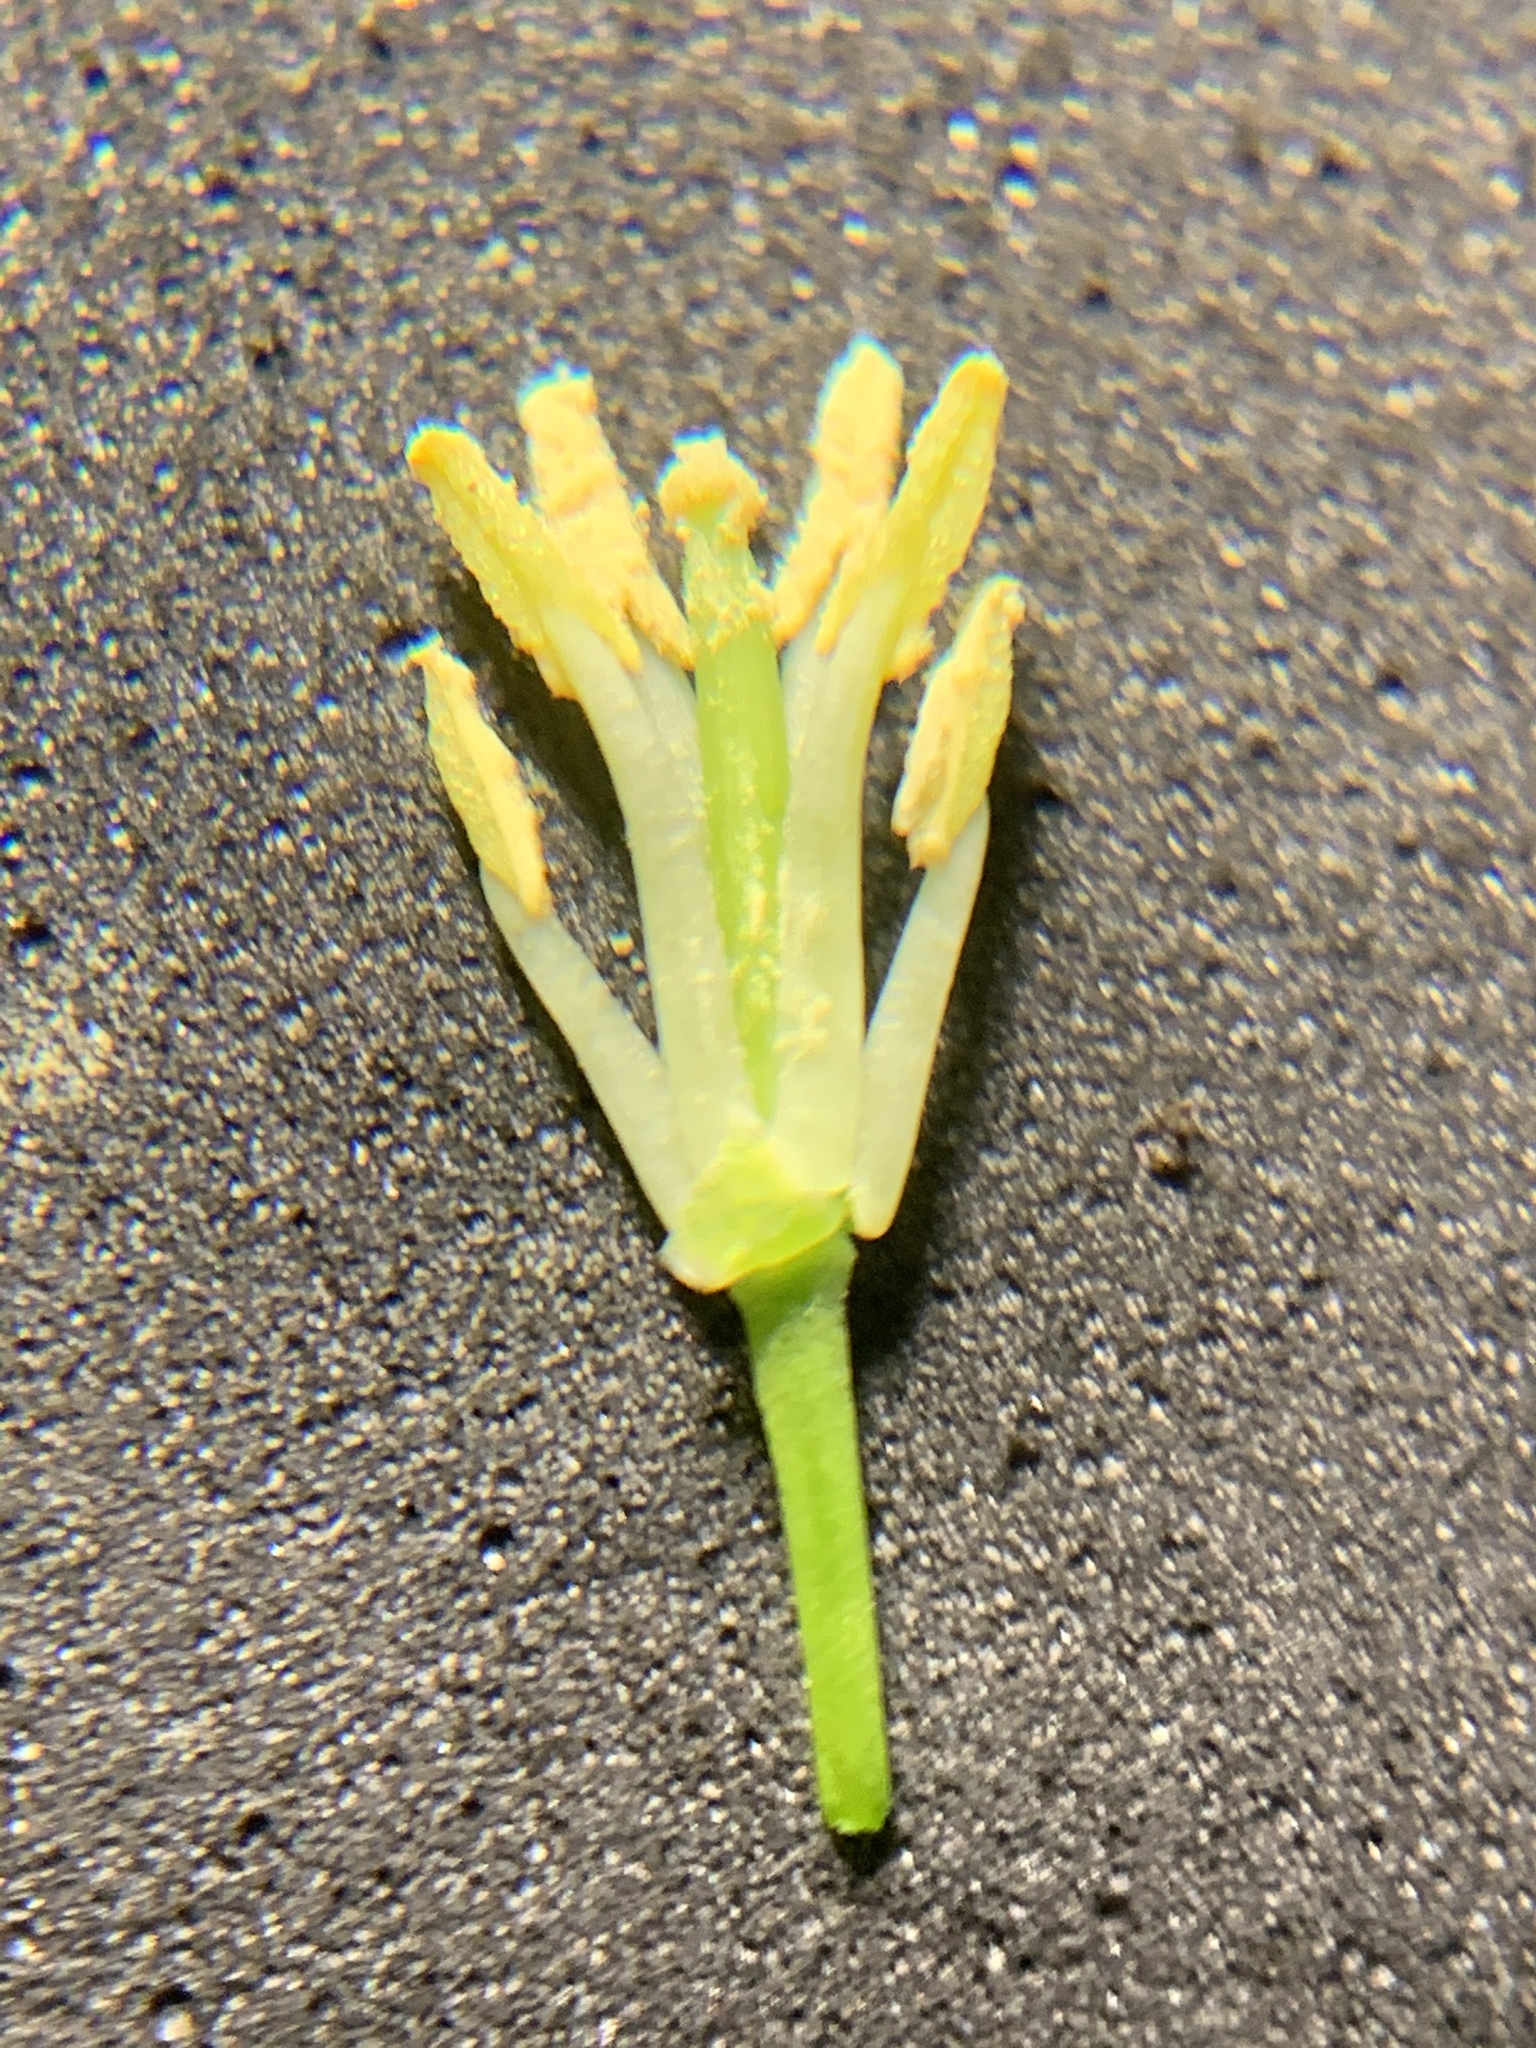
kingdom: Plantae
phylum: Tracheophyta
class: Magnoliopsida
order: Brassicales
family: Brassicaceae
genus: Sisymbrium
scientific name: Sisymbrium altissimum
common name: Tall rocket
